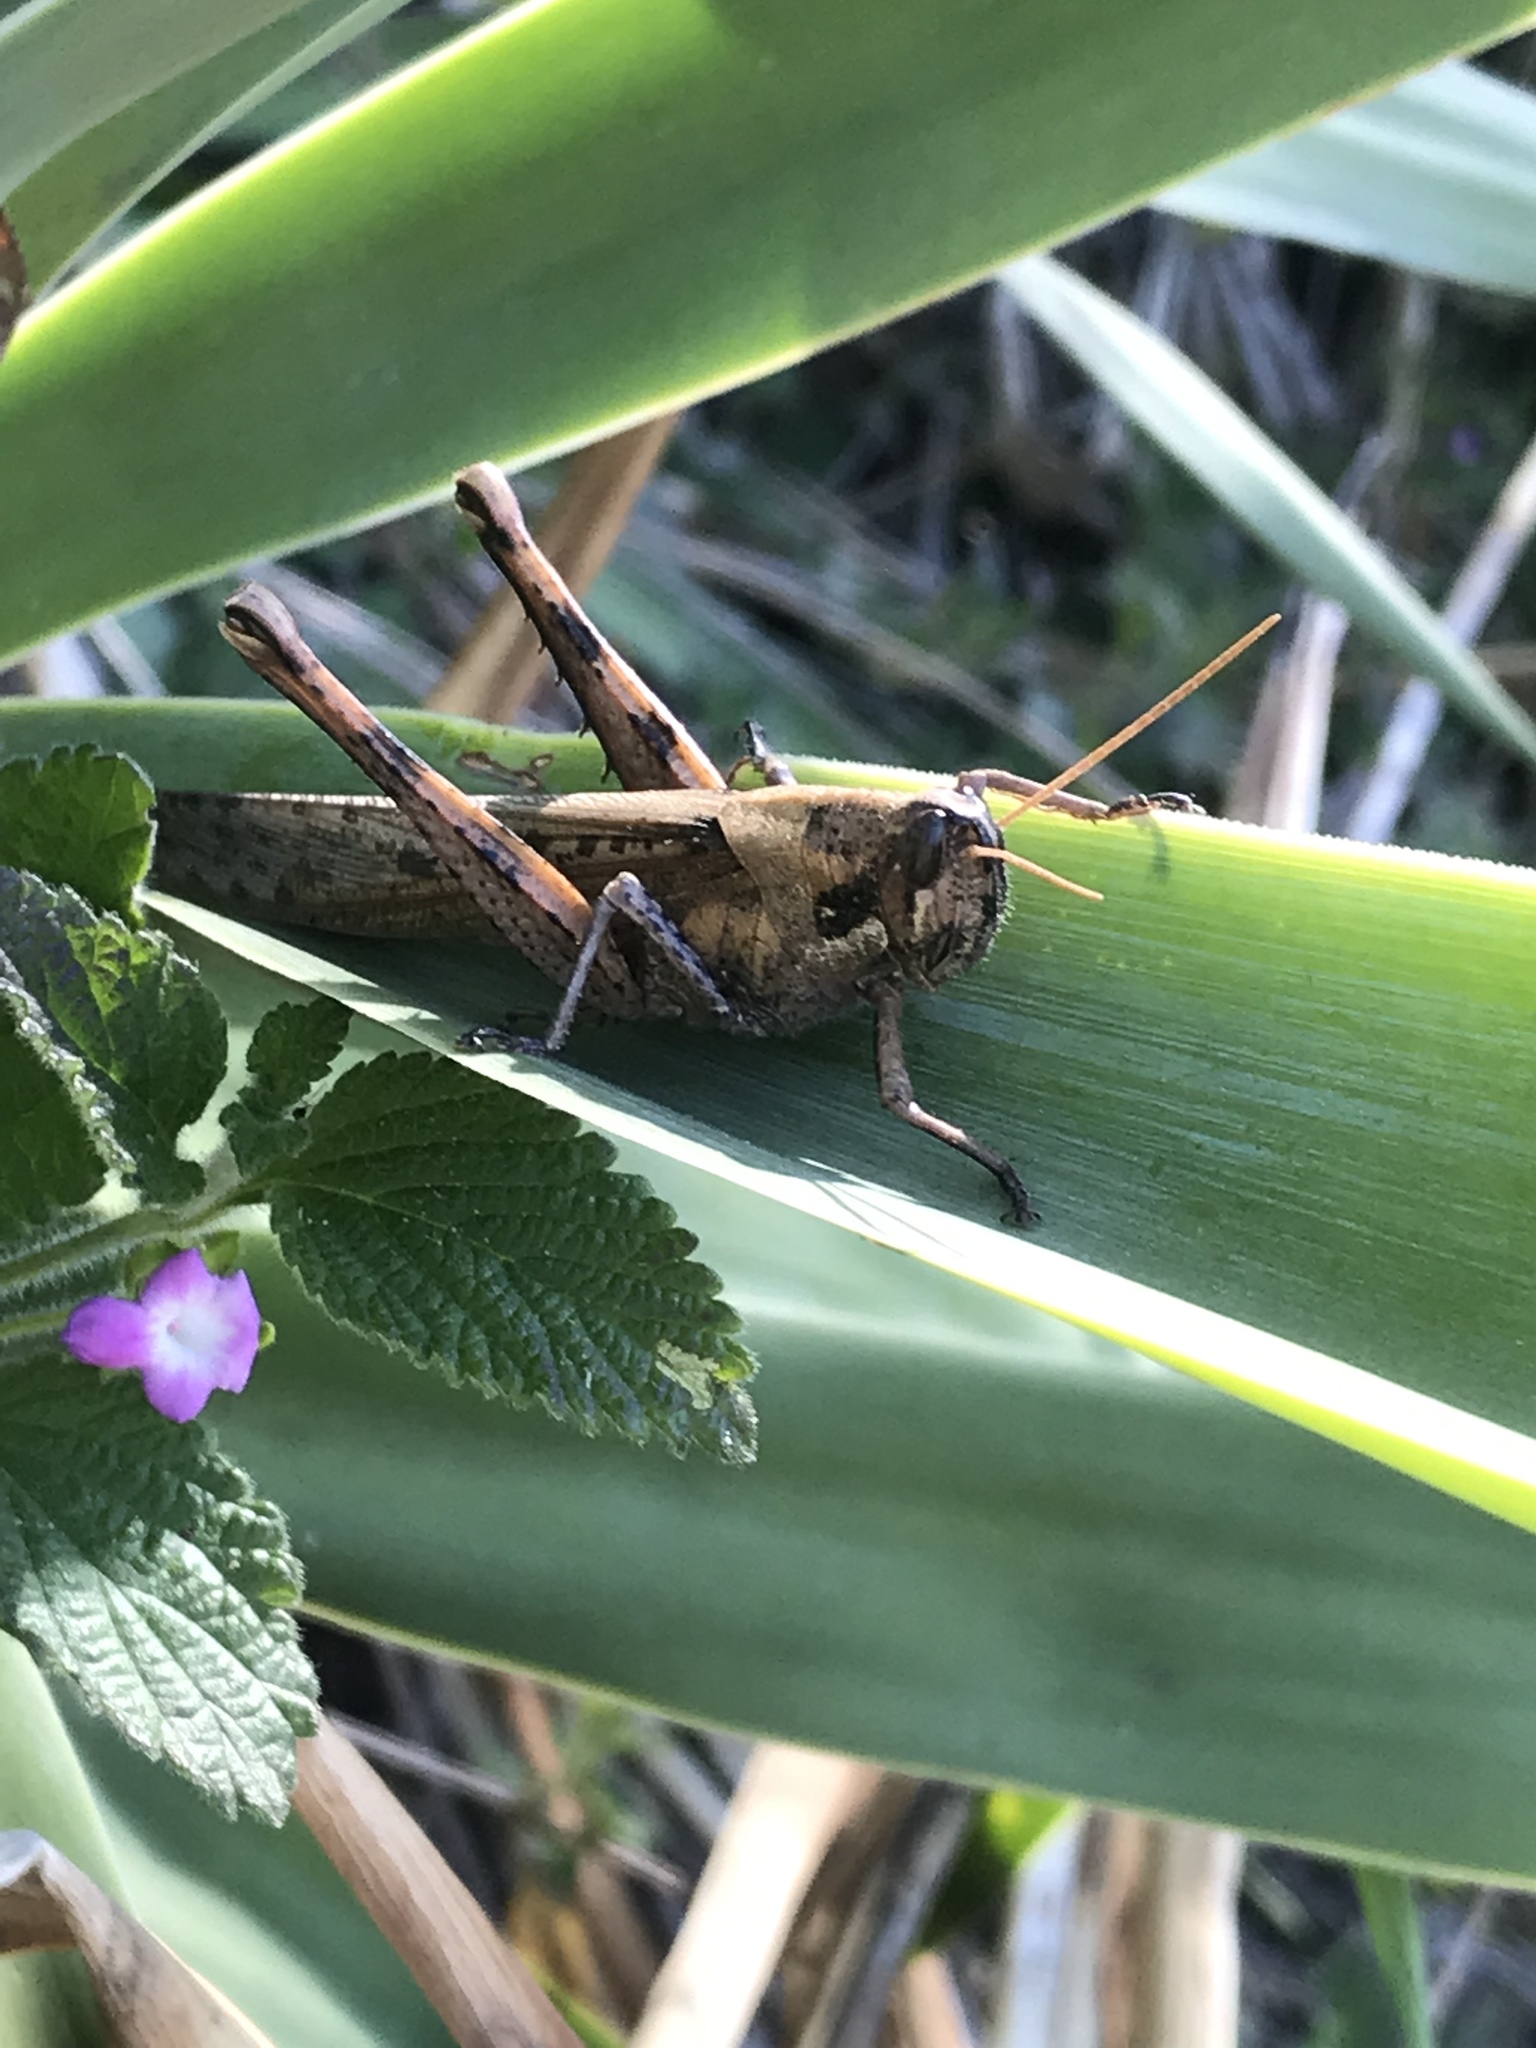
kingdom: Animalia
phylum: Arthropoda
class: Insecta
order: Orthoptera
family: Acrididae
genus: Schistocerca
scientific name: Schistocerca nitens
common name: Vagrant grasshopper
